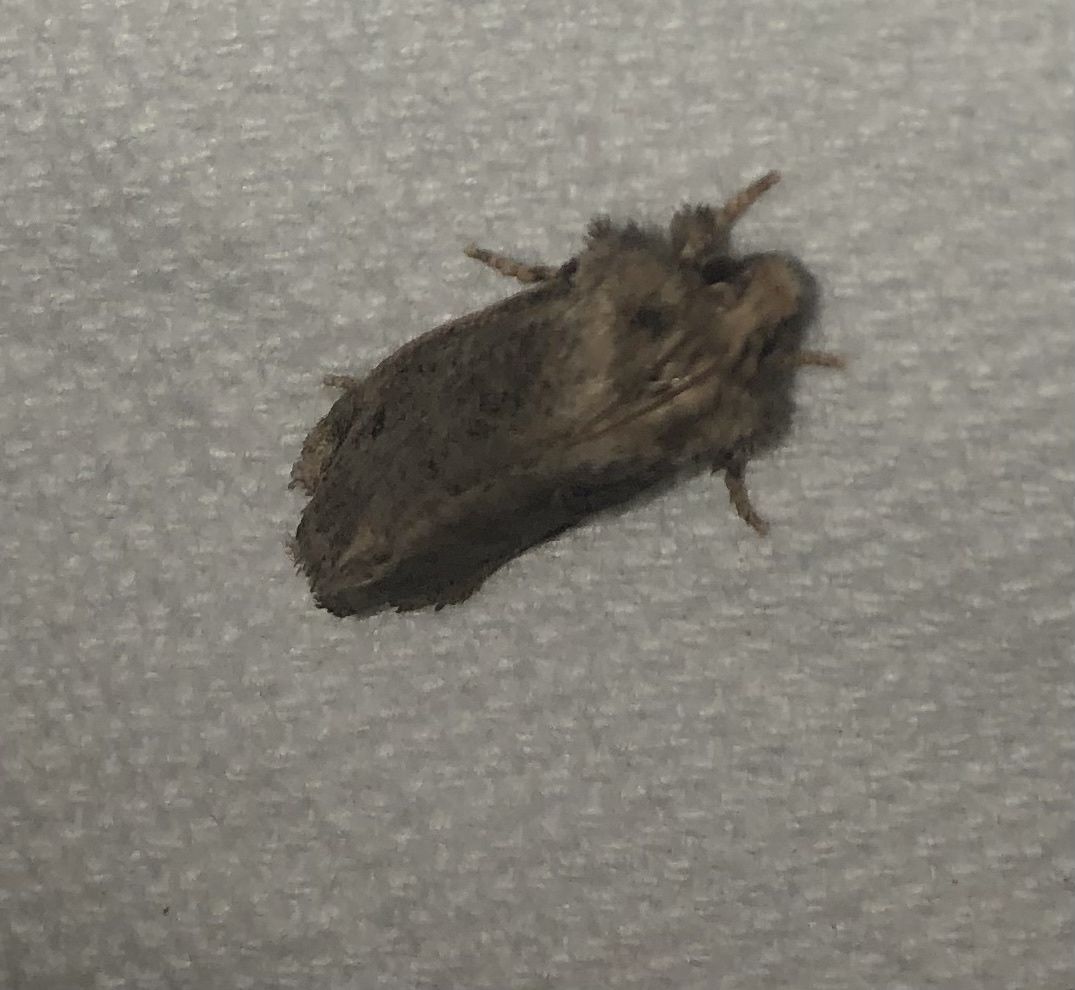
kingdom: Animalia
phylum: Arthropoda
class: Insecta
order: Lepidoptera
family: Tineidae
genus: Acrolophus
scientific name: Acrolophus arcanella
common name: Arcane grass tubeworm moth
